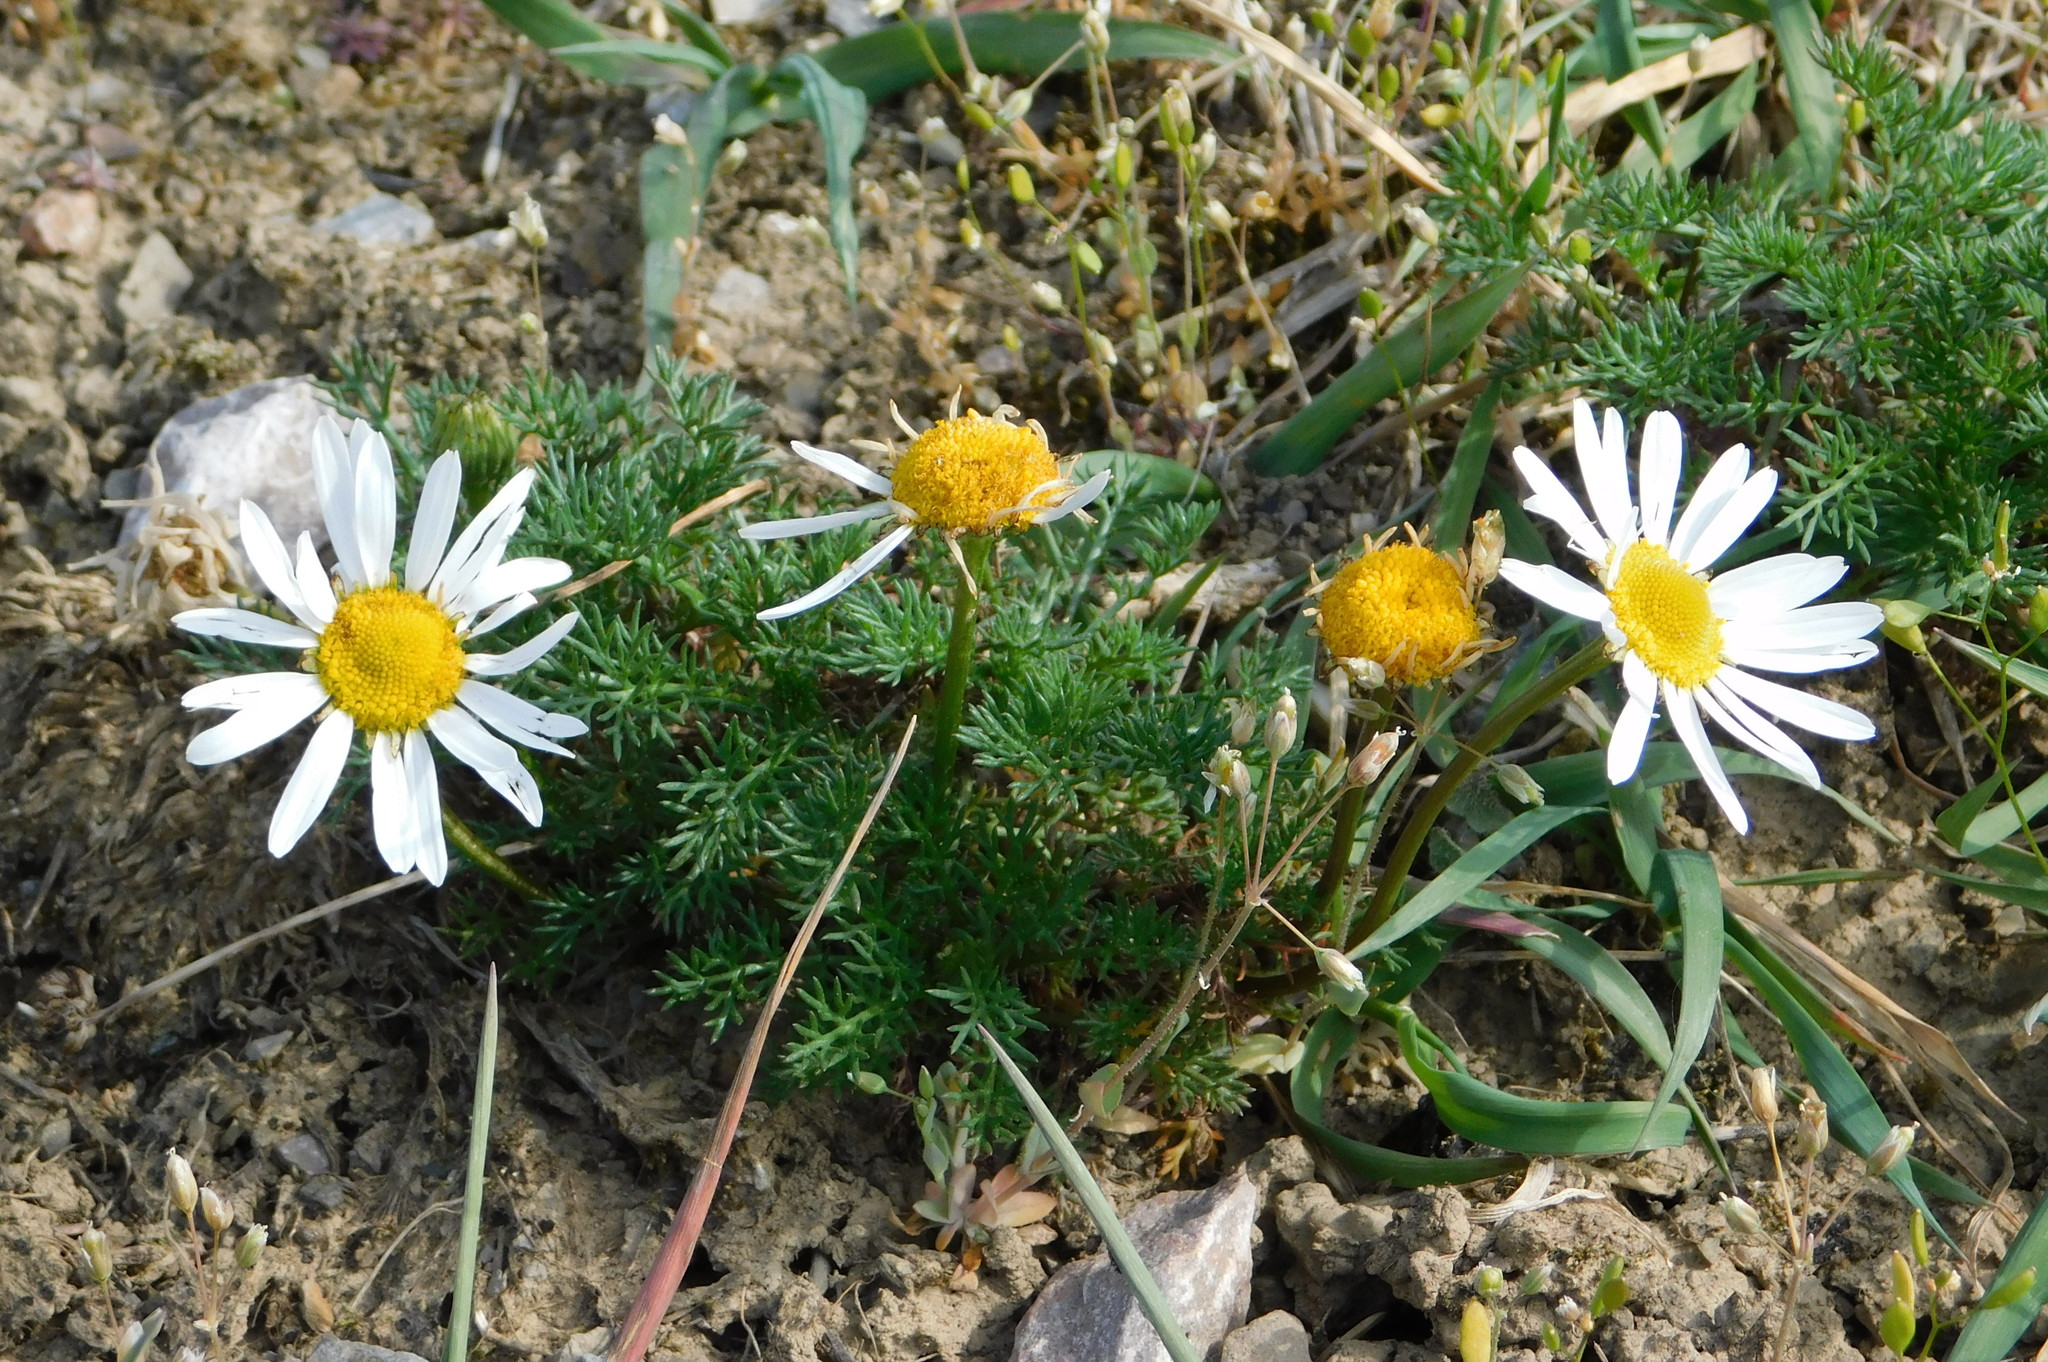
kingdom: Plantae
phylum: Tracheophyta
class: Magnoliopsida
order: Asterales
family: Asteraceae
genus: Tripleurospermum
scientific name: Tripleurospermum inodorum
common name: Scentless mayweed
